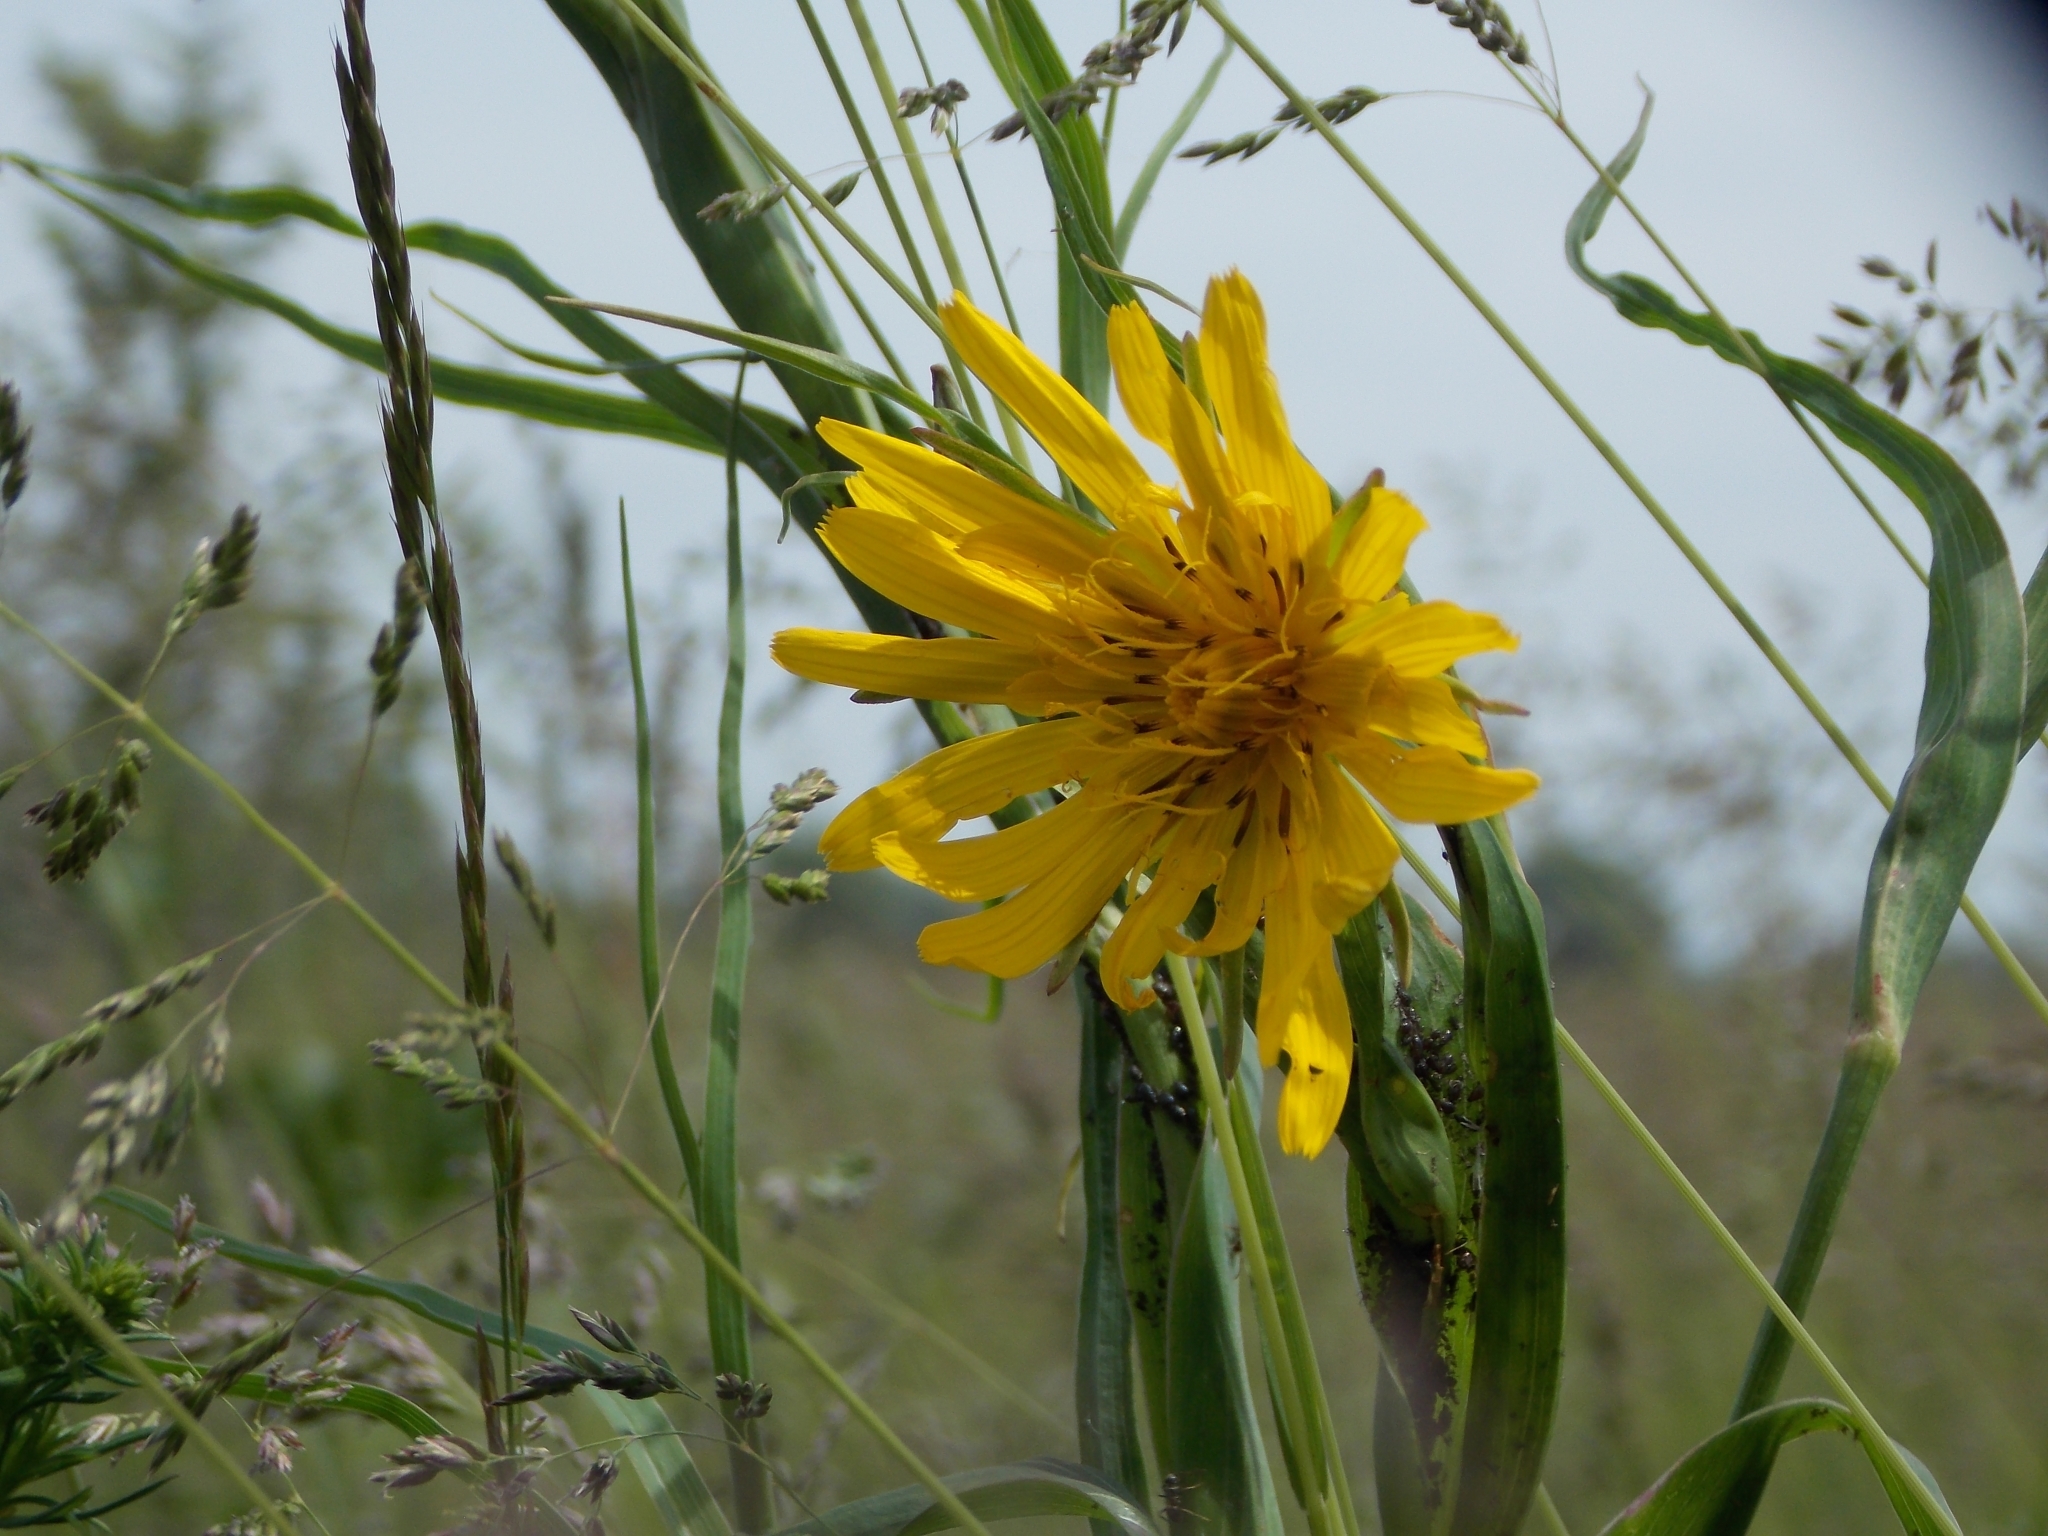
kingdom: Plantae
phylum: Tracheophyta
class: Magnoliopsida
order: Asterales
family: Asteraceae
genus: Tragopogon
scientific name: Tragopogon orientalis
